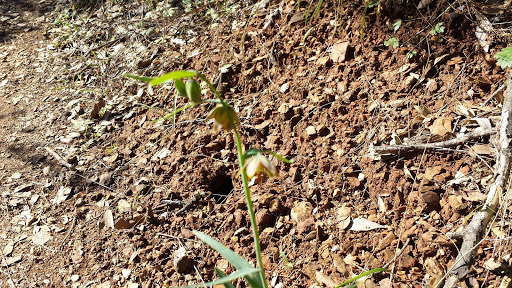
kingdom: Plantae
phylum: Tracheophyta
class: Liliopsida
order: Liliales
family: Liliaceae
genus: Fritillaria
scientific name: Fritillaria micrantha
